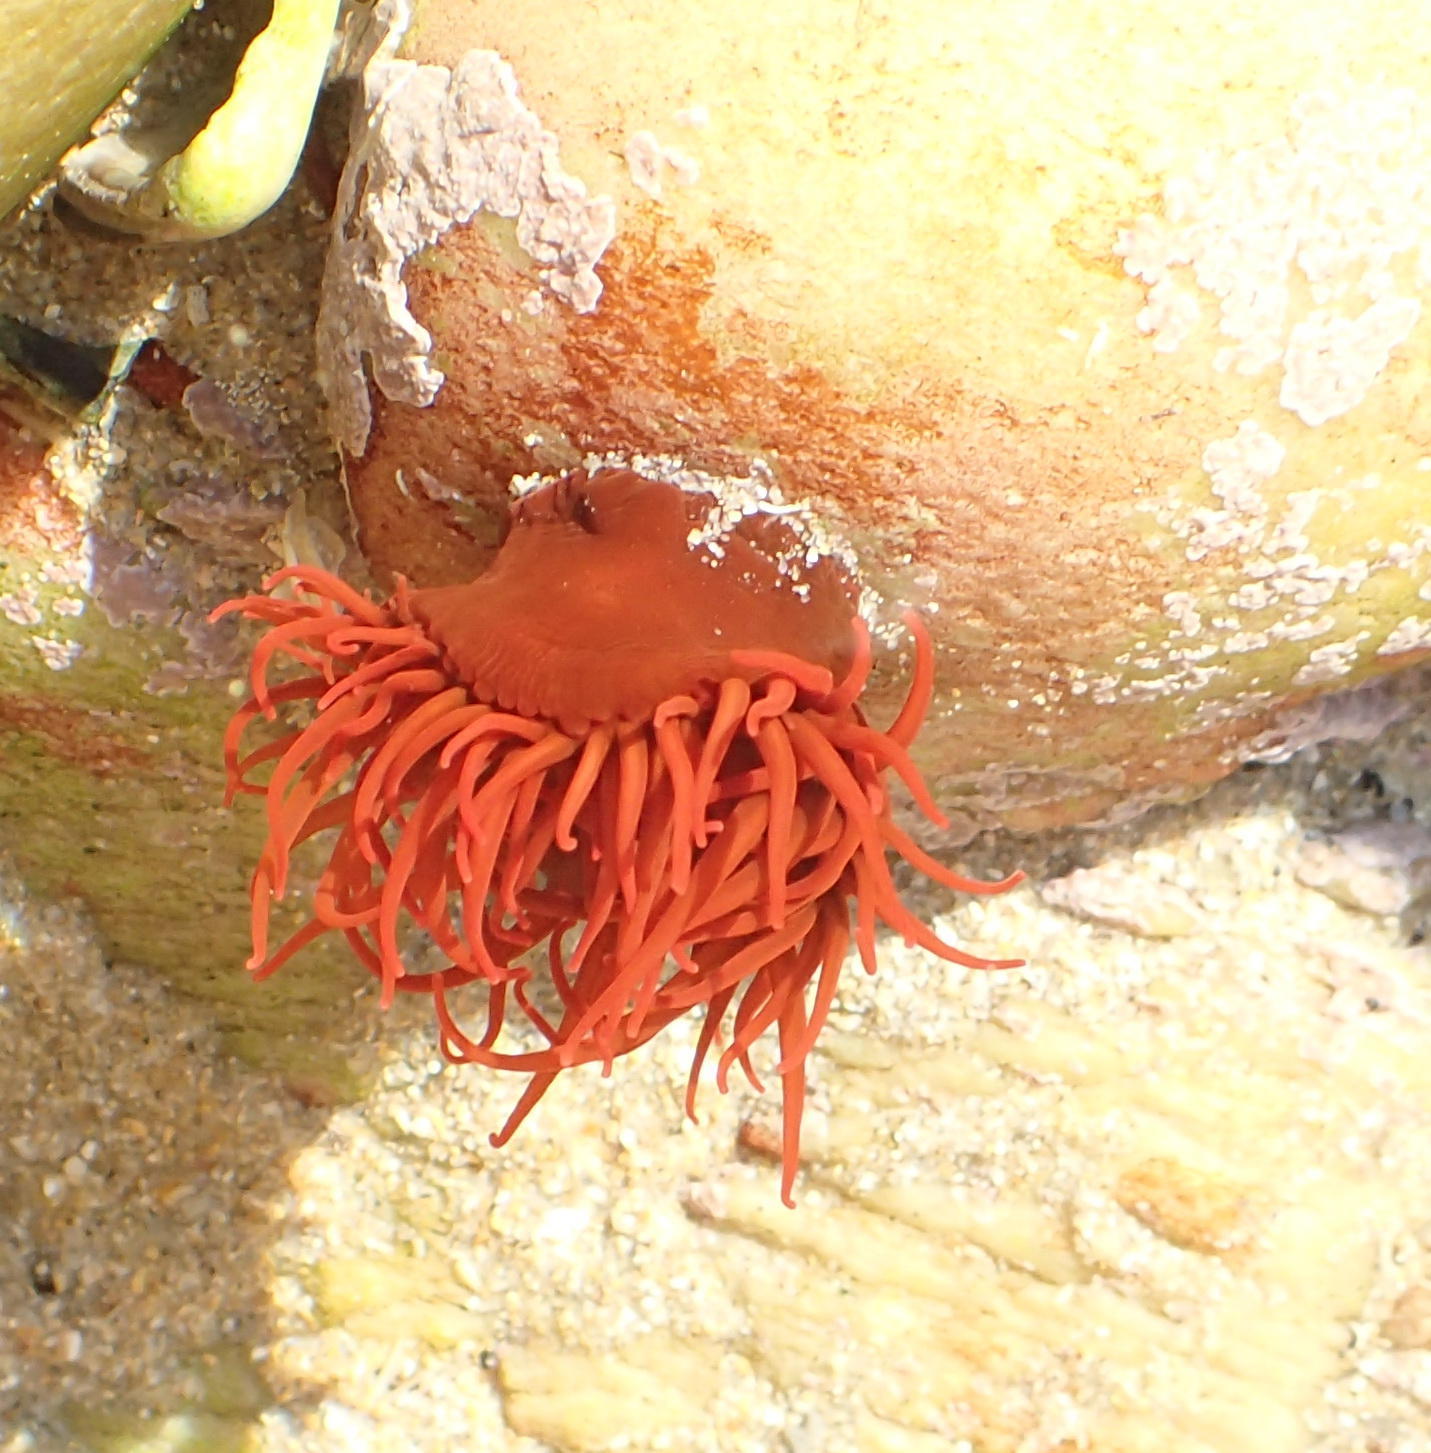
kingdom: Animalia
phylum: Cnidaria
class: Anthozoa
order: Actiniaria
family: Actiniidae
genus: Pseudactinia
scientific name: Pseudactinia flagellifera
